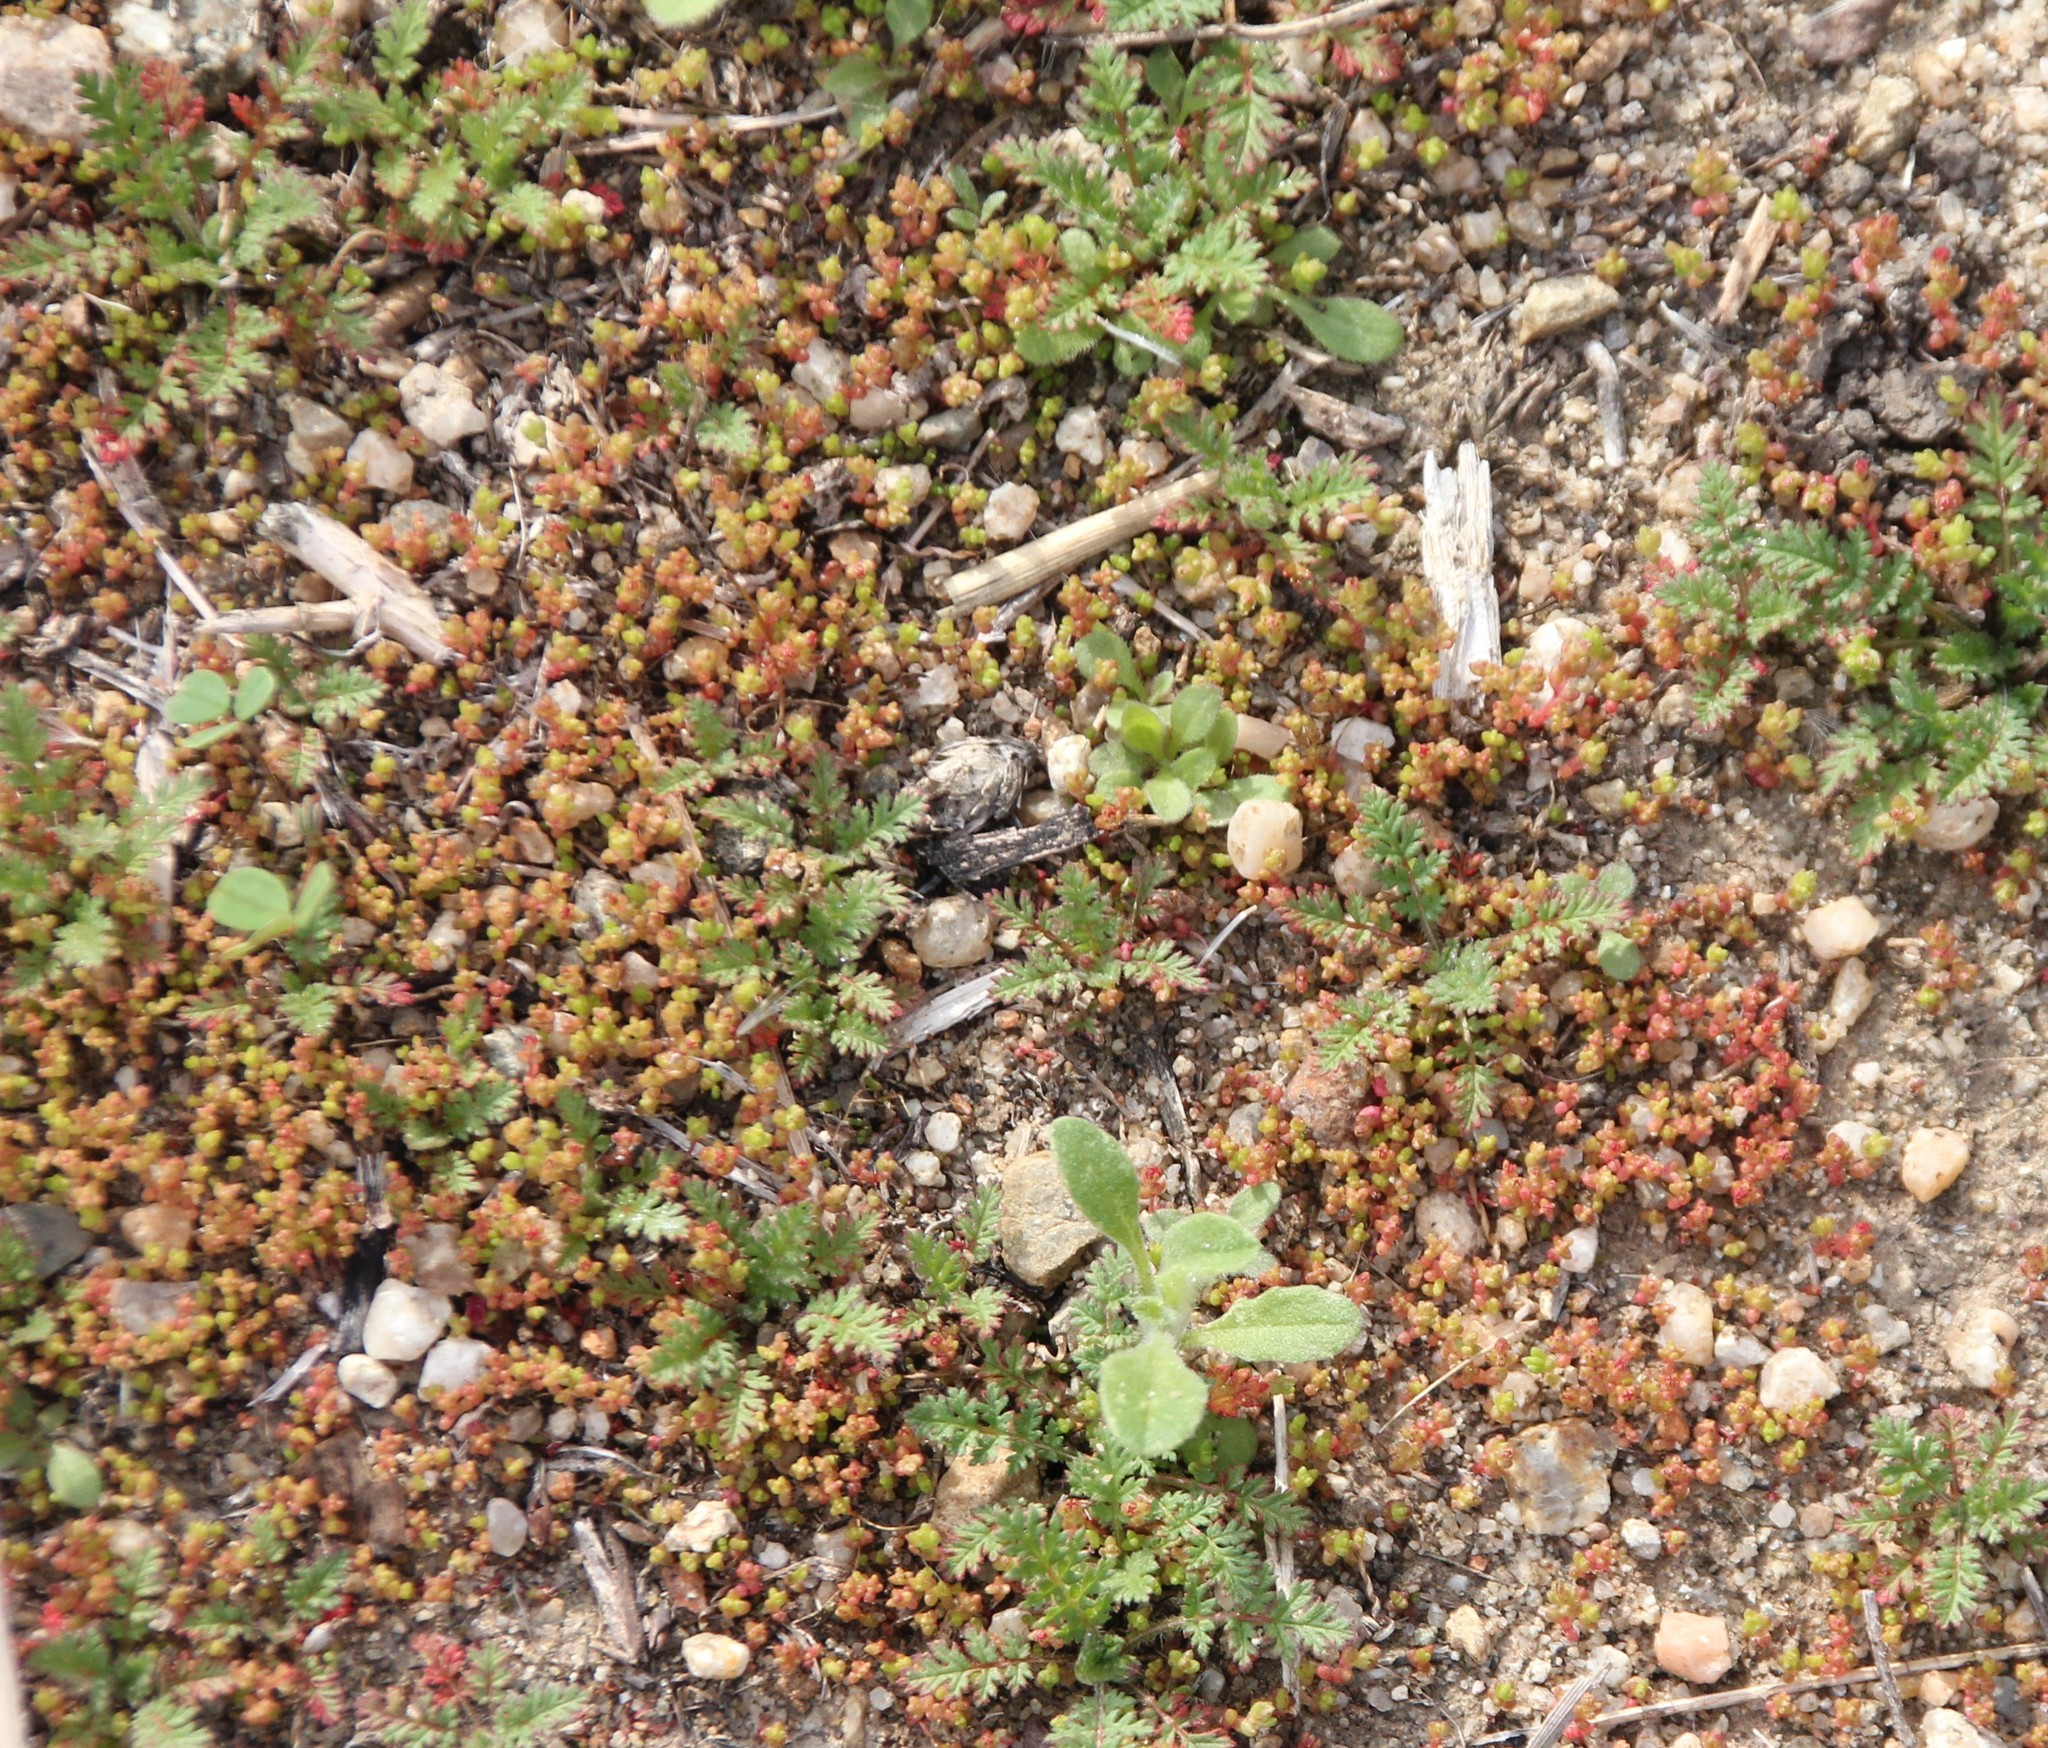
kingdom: Plantae
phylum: Tracheophyta
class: Magnoliopsida
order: Saxifragales
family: Crassulaceae
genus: Crassula
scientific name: Crassula connata
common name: Erect pygmyweed
